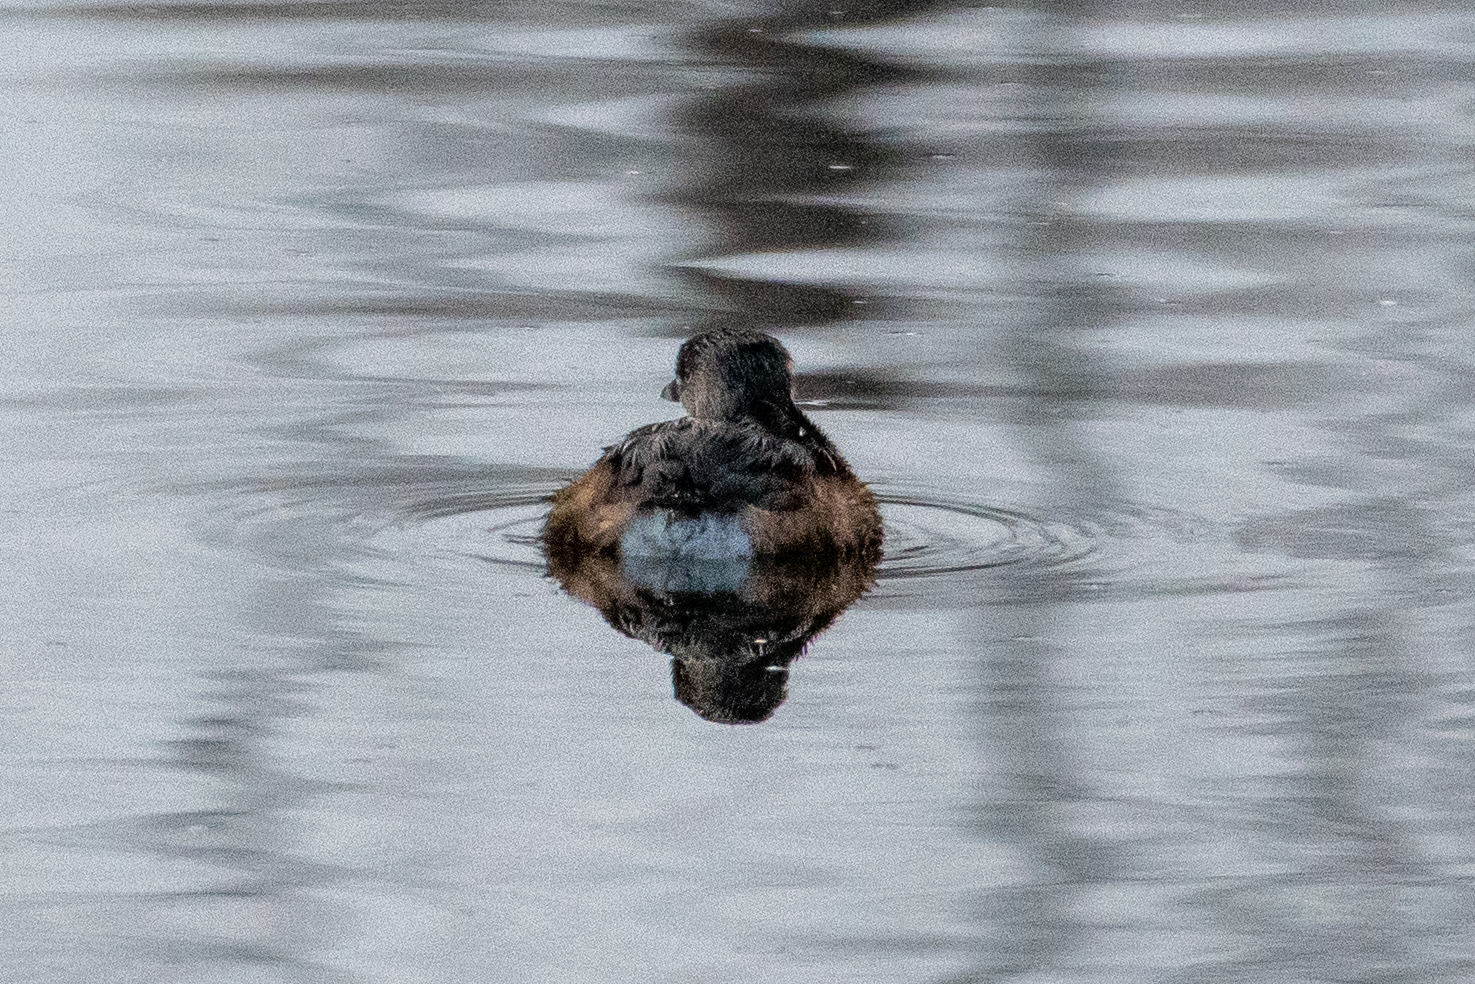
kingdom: Animalia
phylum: Chordata
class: Aves
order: Podicipediformes
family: Podicipedidae
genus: Podilymbus
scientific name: Podilymbus podiceps
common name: Pied-billed grebe
